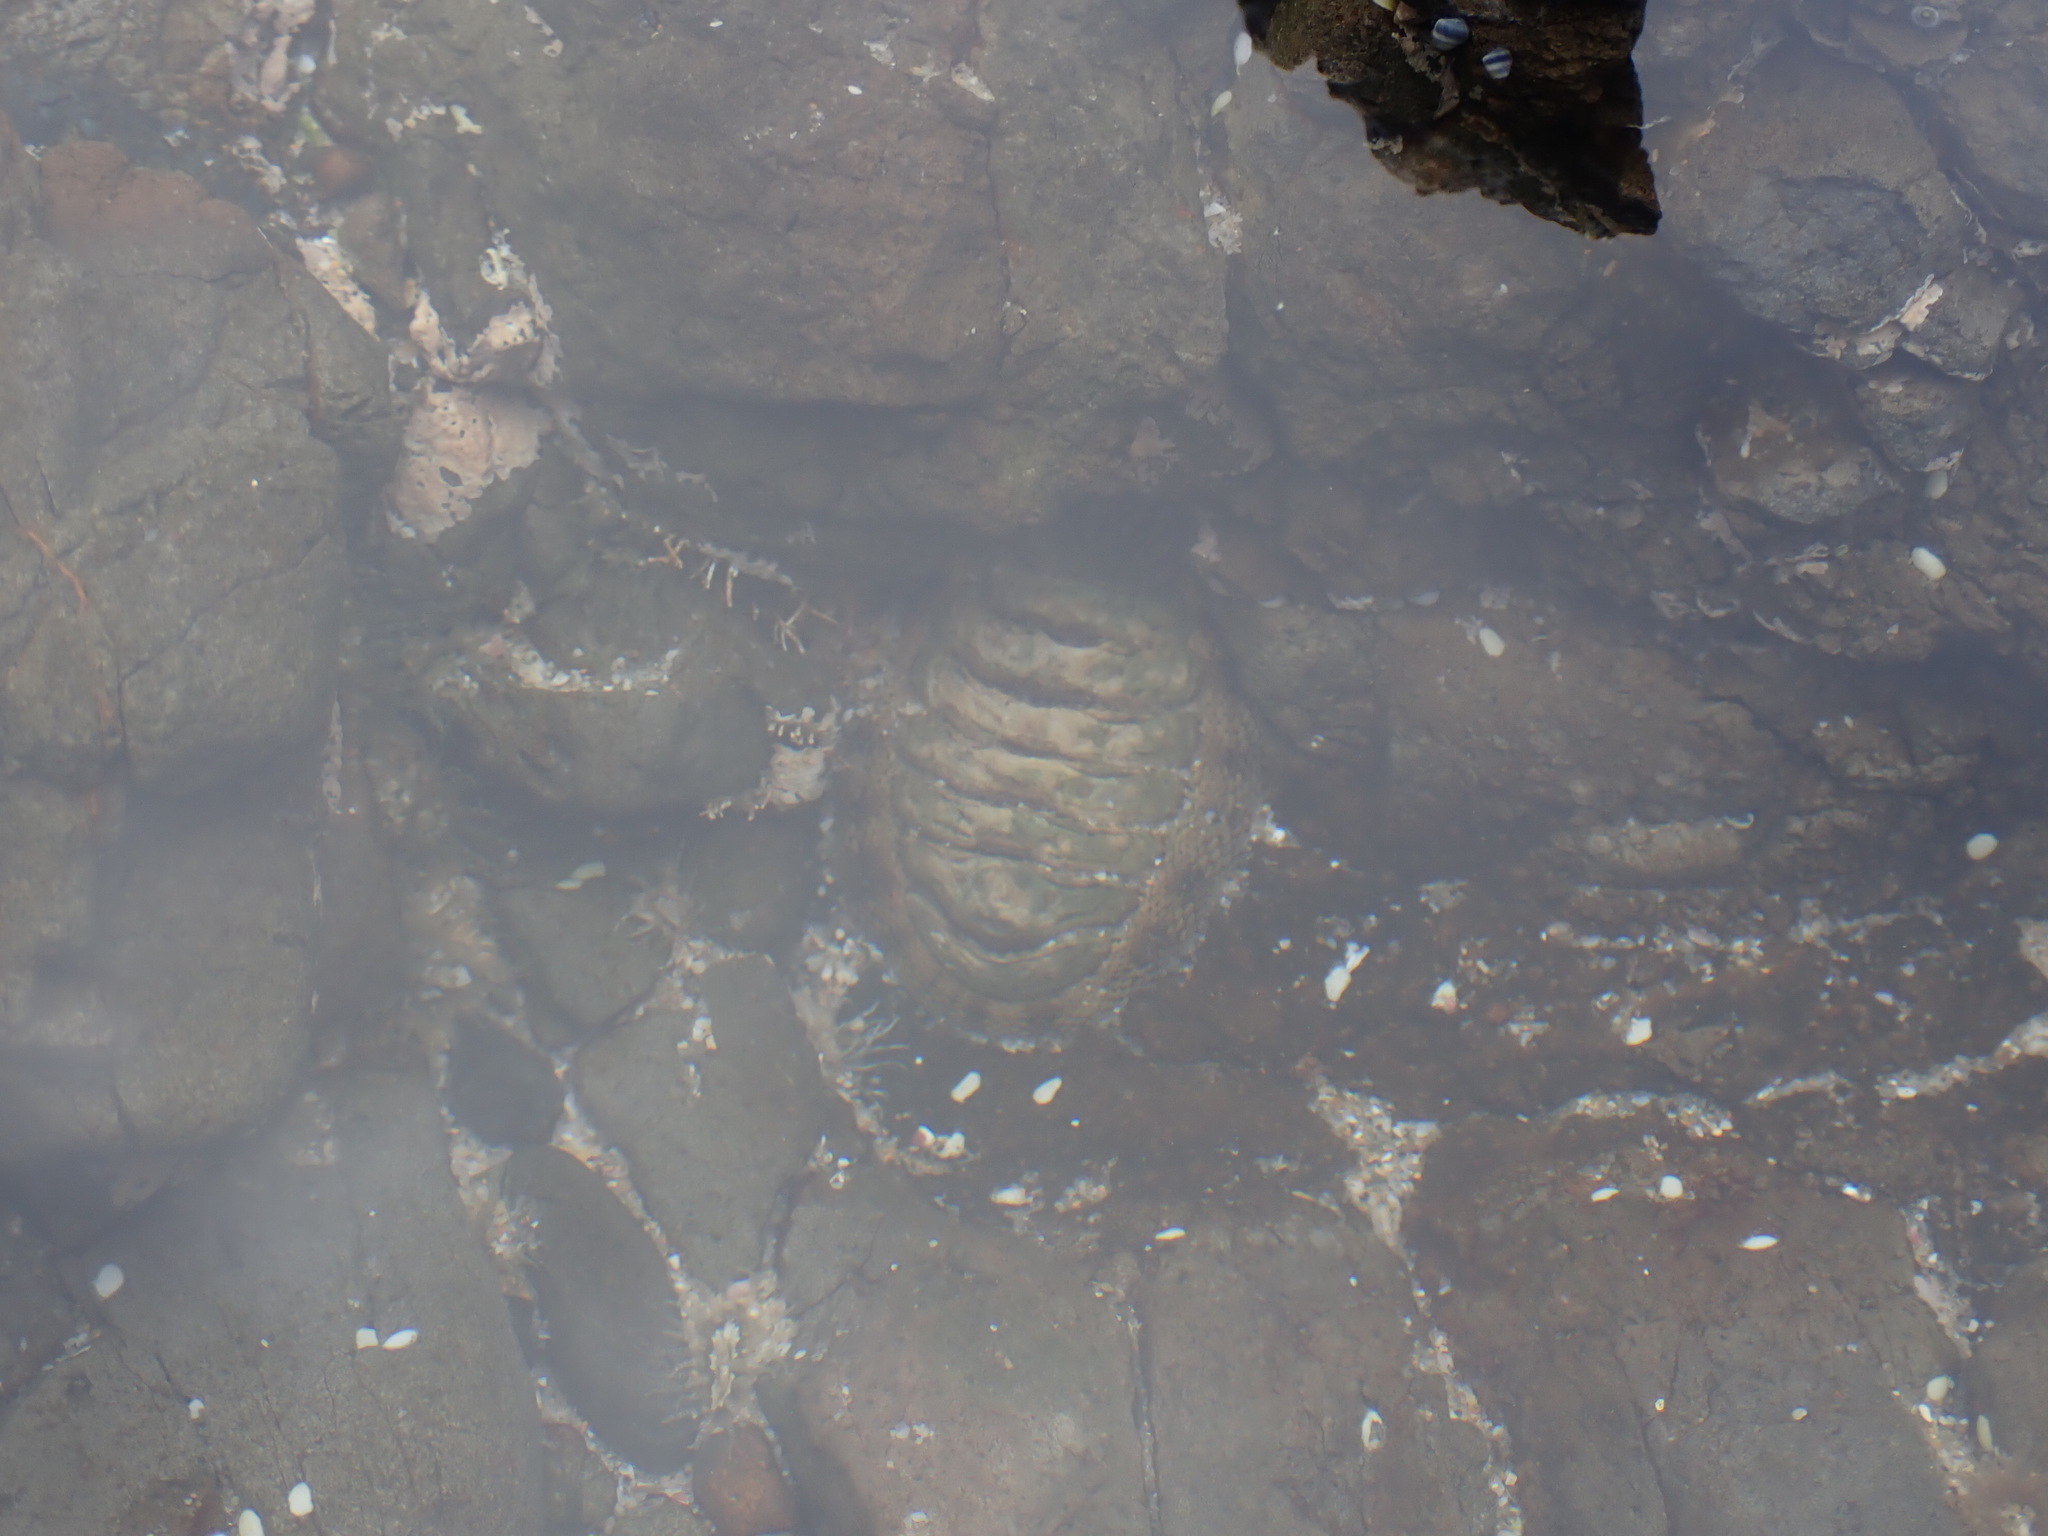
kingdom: Animalia
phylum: Mollusca
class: Polyplacophora
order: Chitonida
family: Chitonidae
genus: Sypharochiton
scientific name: Sypharochiton pelliserpentis
